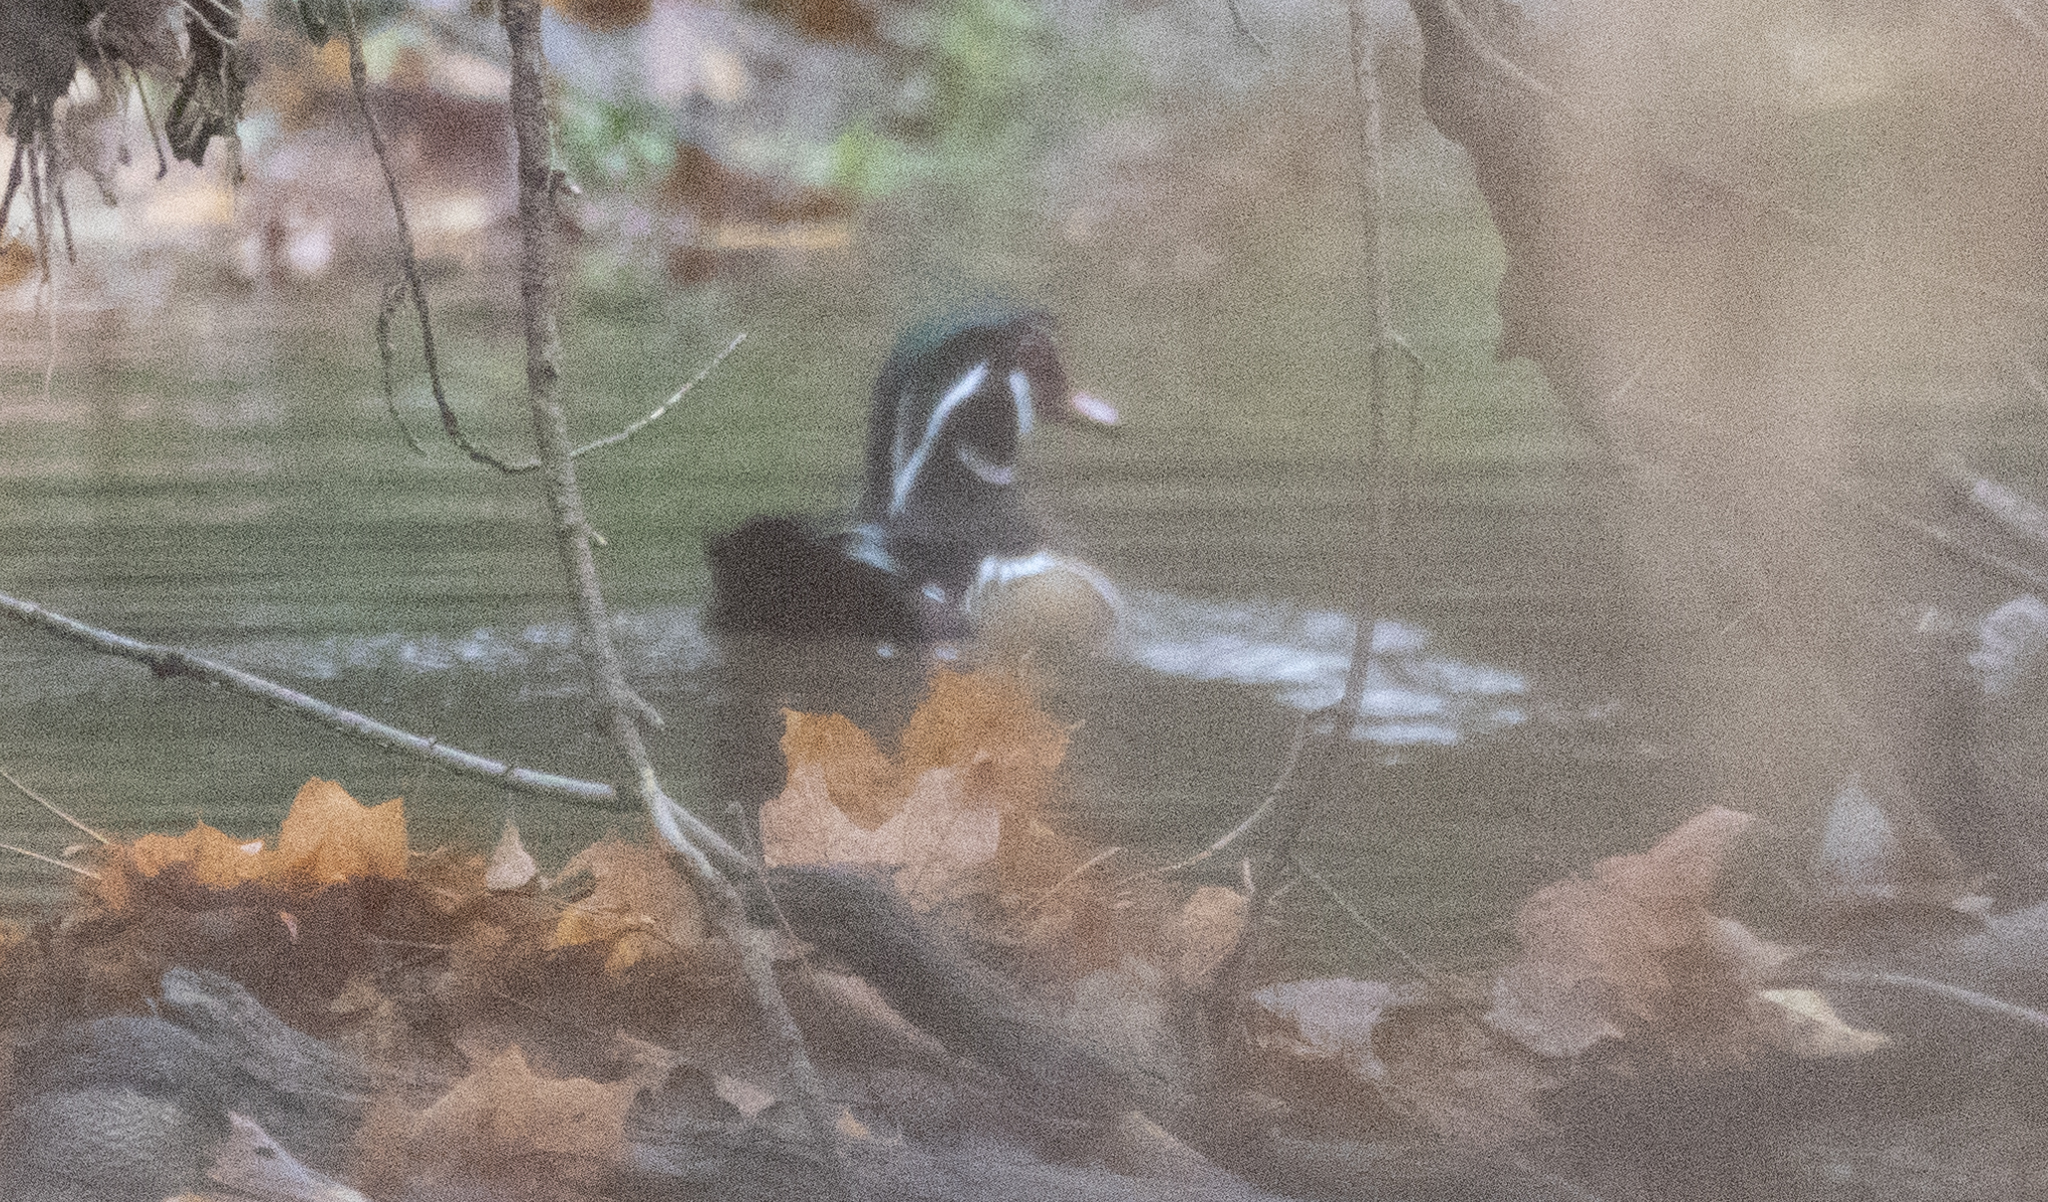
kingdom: Animalia
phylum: Chordata
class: Aves
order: Anseriformes
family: Anatidae
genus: Aix
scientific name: Aix sponsa
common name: Wood duck
